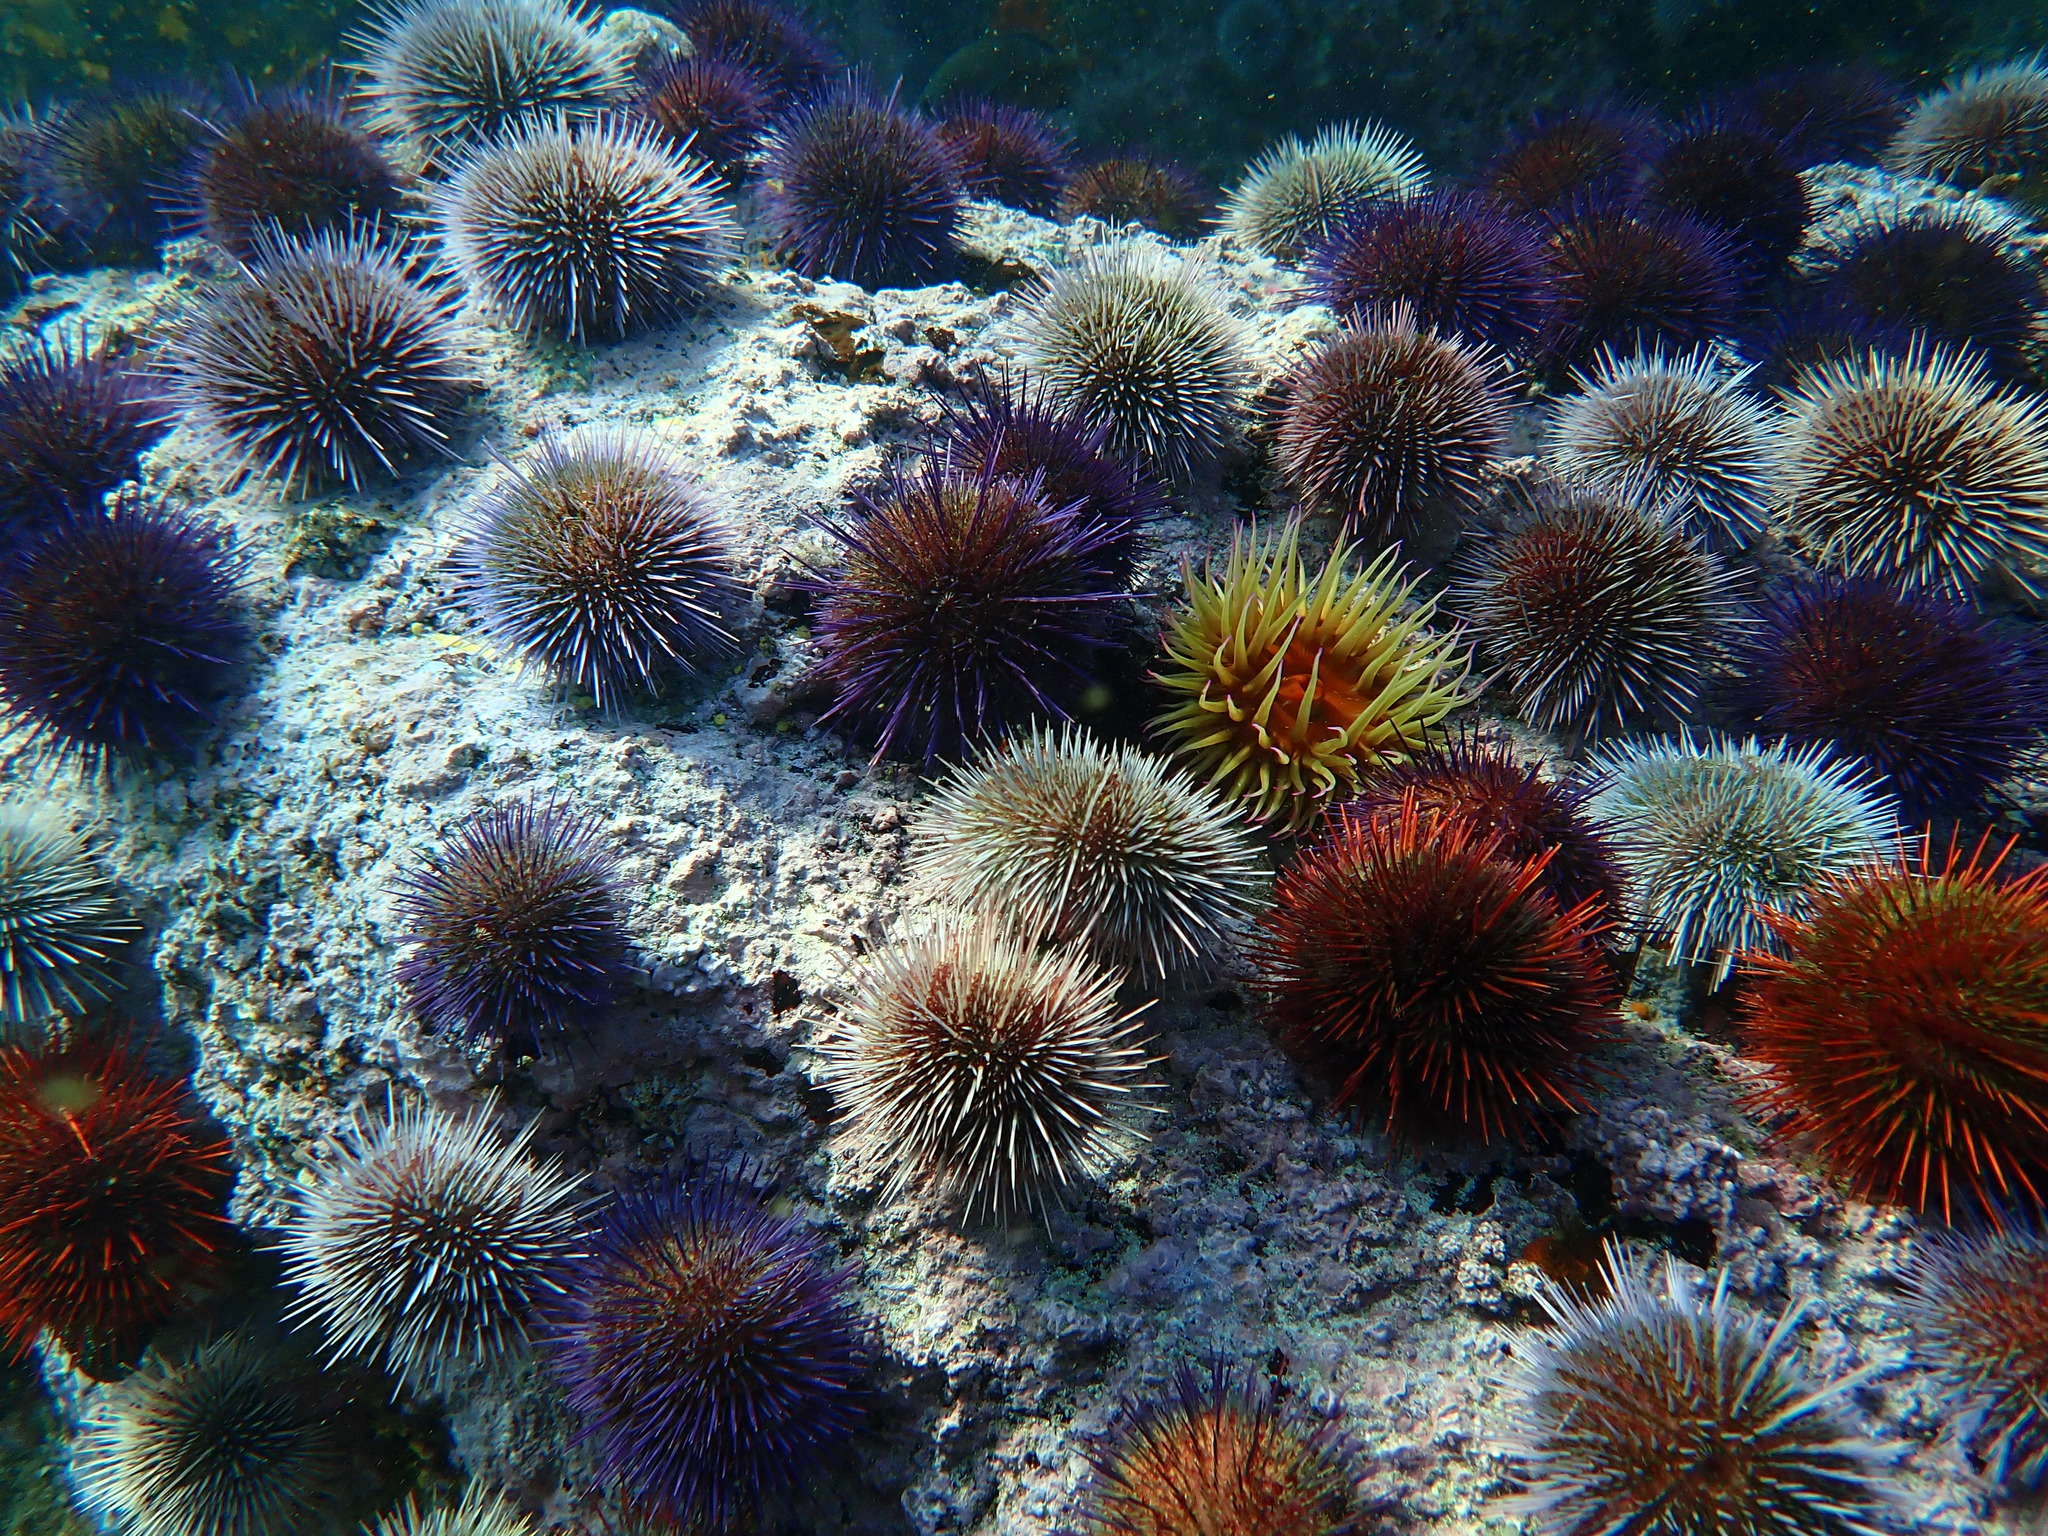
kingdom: Animalia
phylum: Echinodermata
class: Echinoidea
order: Camarodonta
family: Parechinidae
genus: Parechinus
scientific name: Parechinus angulosus
